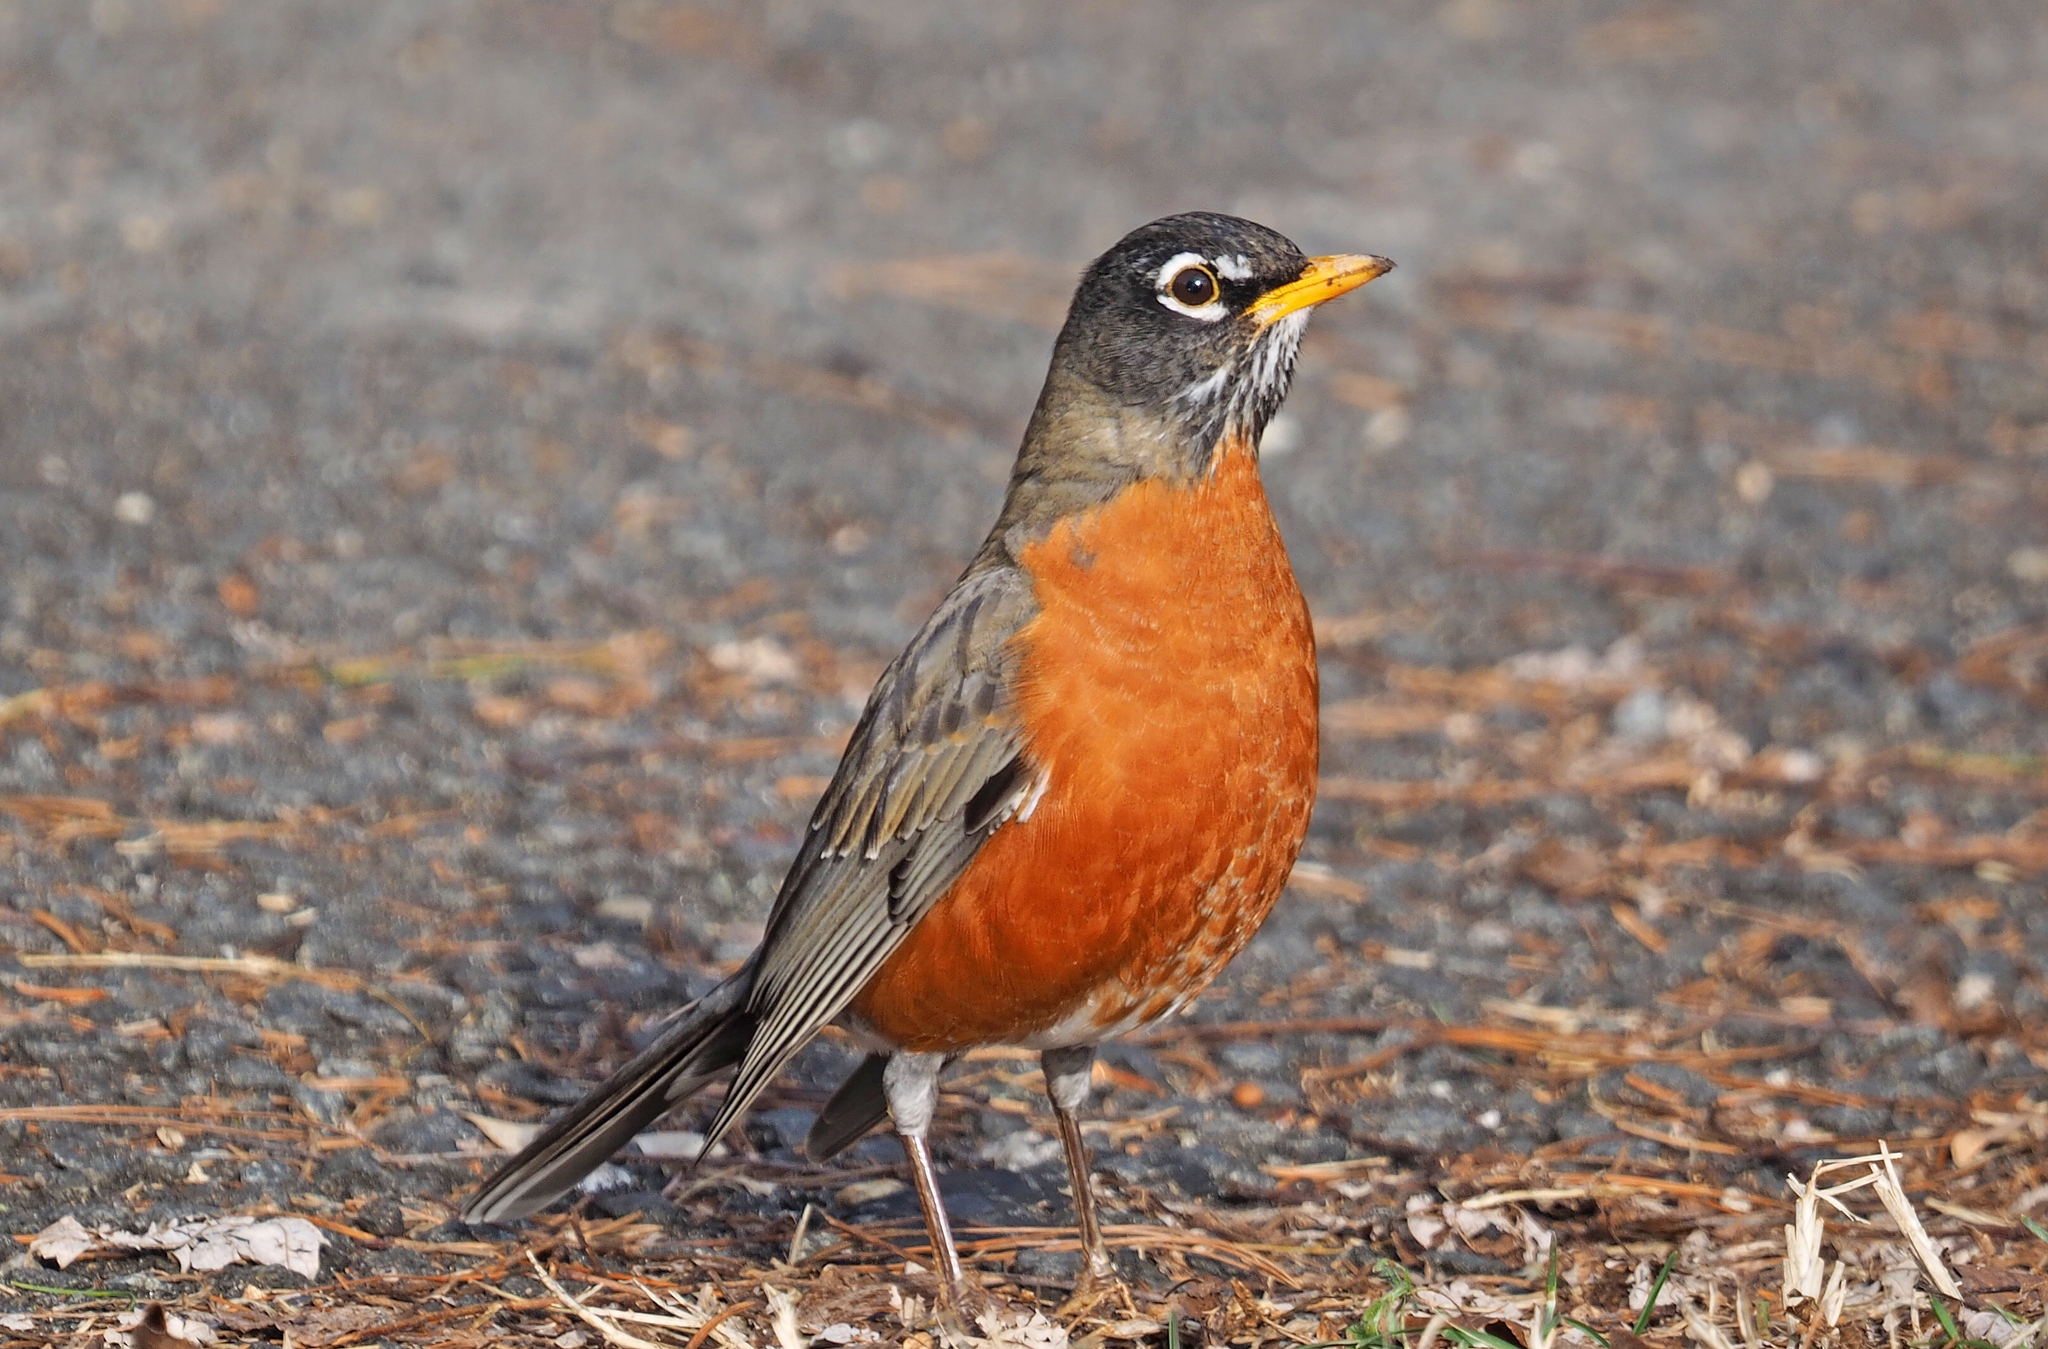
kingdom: Animalia
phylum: Chordata
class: Aves
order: Passeriformes
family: Turdidae
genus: Turdus
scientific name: Turdus migratorius
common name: American robin
